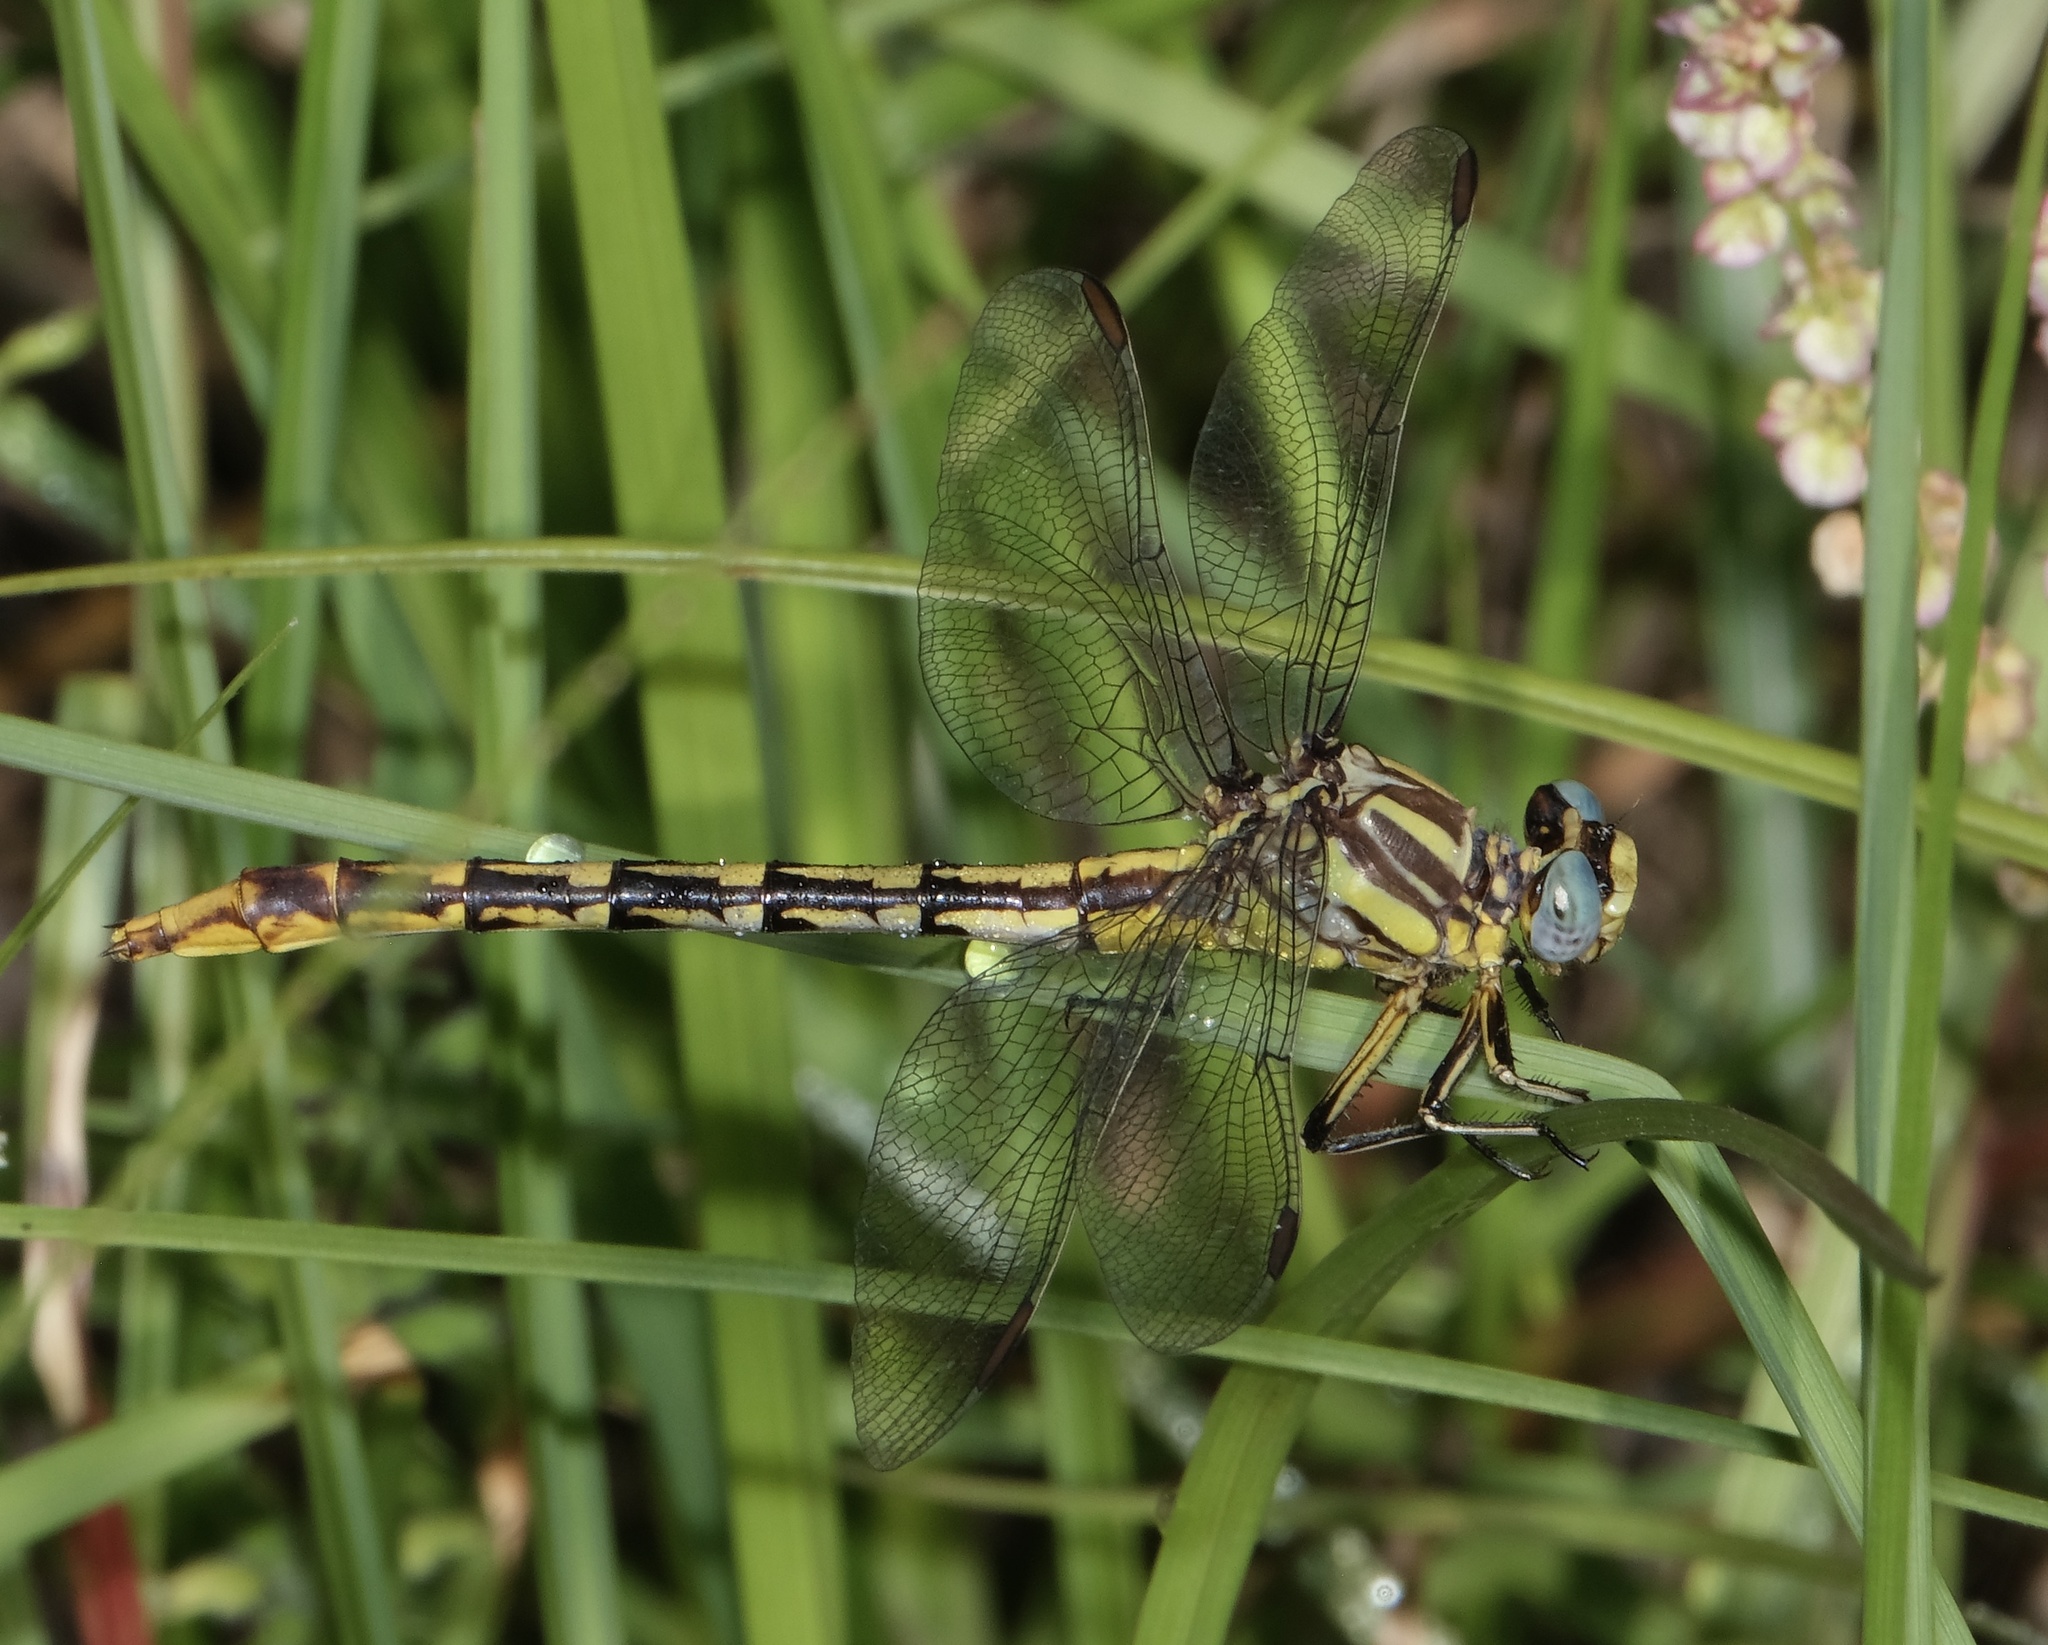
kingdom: Animalia
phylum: Arthropoda
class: Insecta
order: Odonata
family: Gomphidae
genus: Phanogomphus
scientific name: Phanogomphus militaris
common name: Sulphur-tipped clubtail
